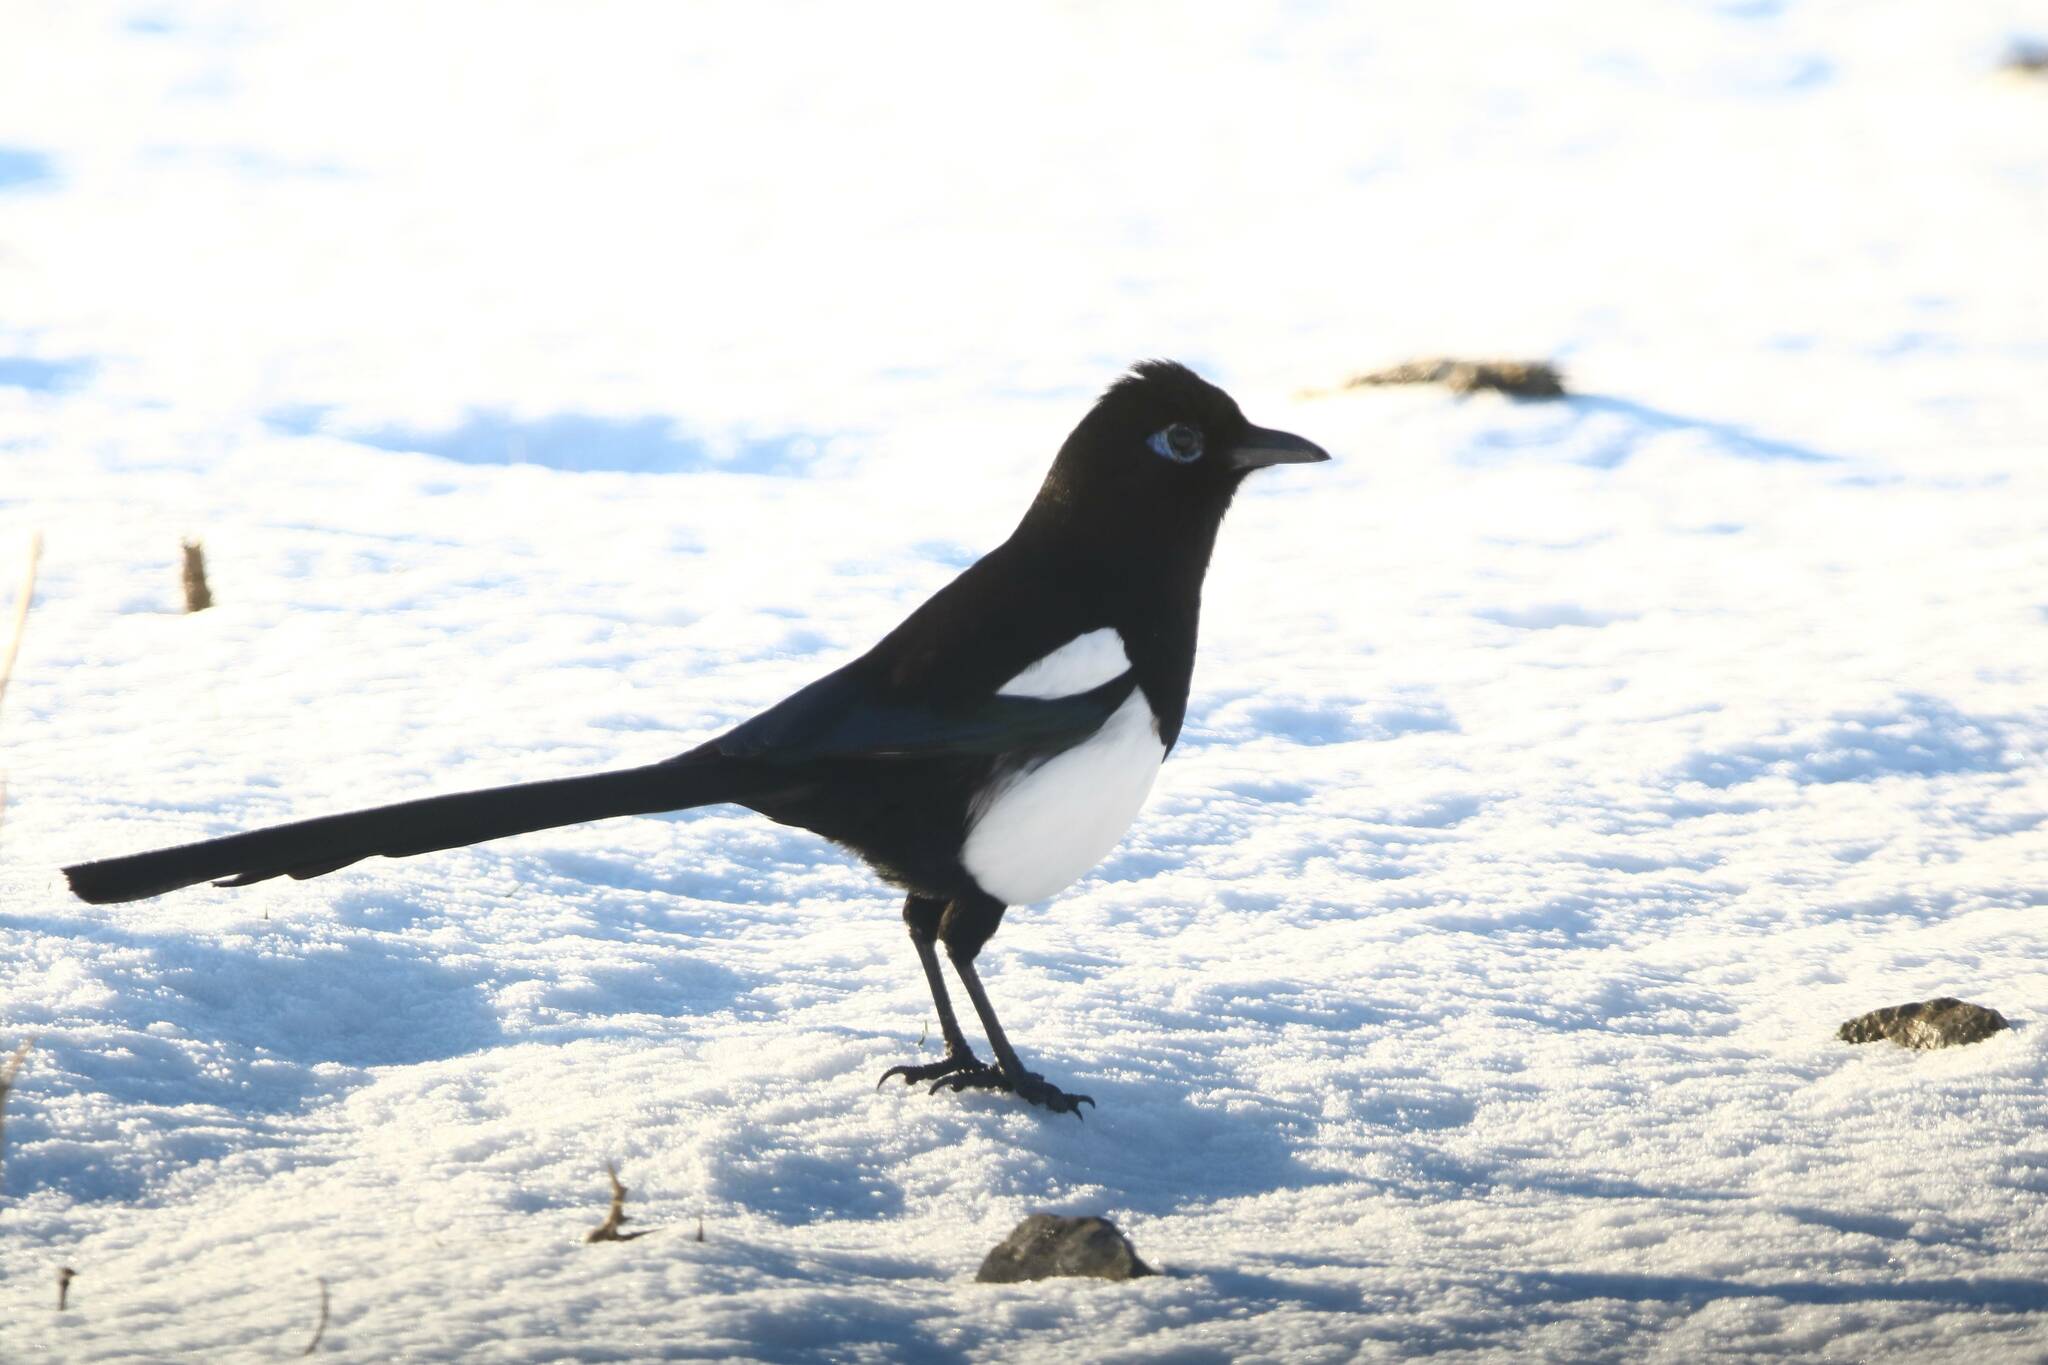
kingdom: Animalia
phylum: Chordata
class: Aves
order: Passeriformes
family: Corvidae
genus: Pica
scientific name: Pica mauritanica
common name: Maghreb magpie
